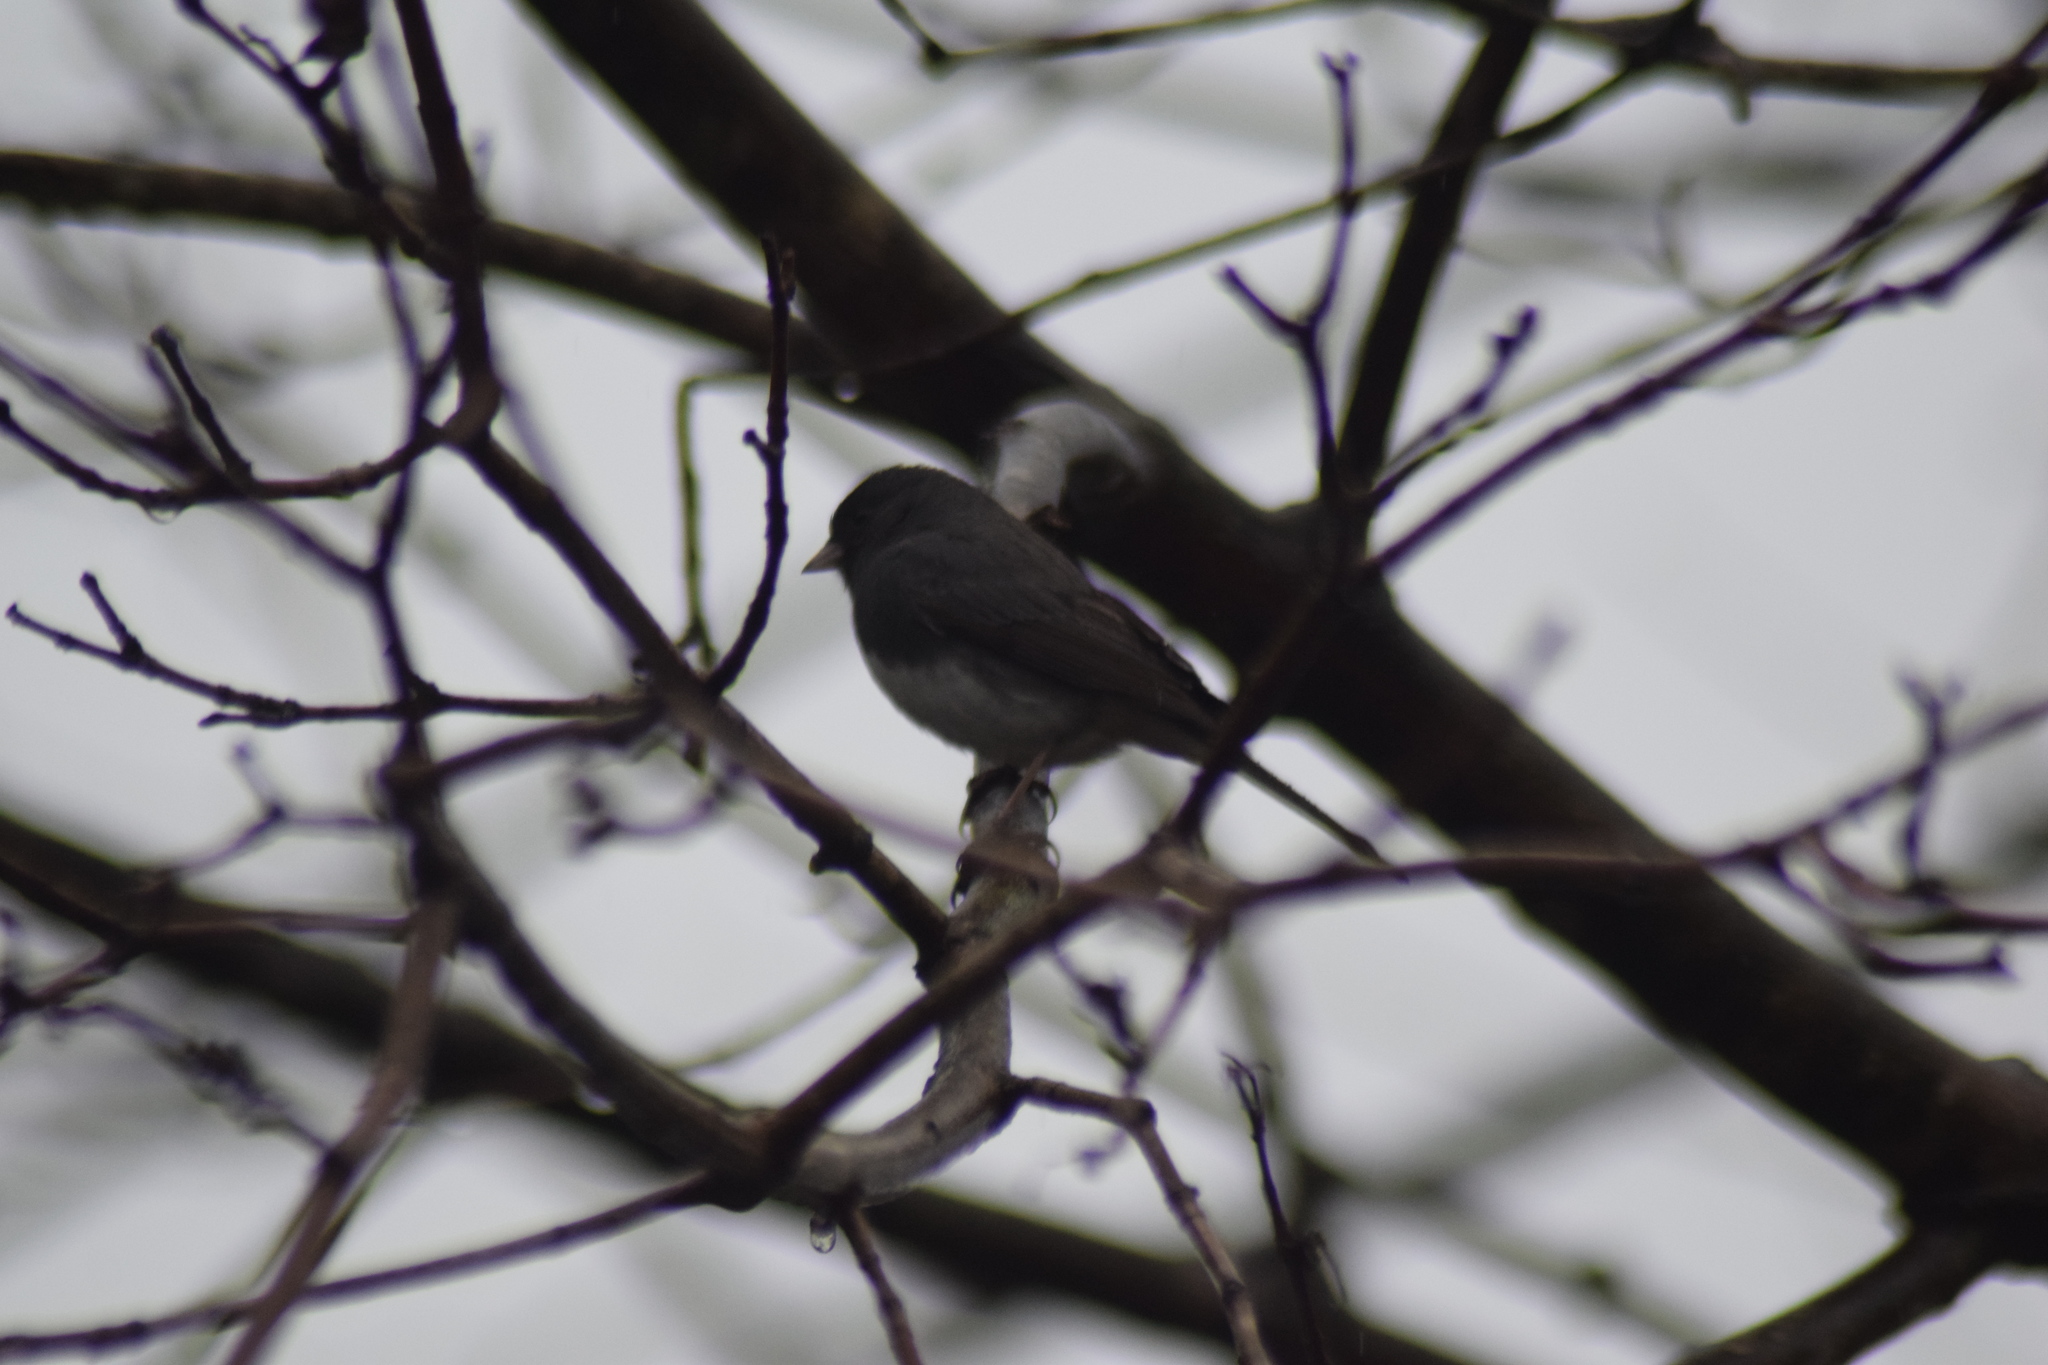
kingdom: Animalia
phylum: Chordata
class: Aves
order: Passeriformes
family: Passerellidae
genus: Junco
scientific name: Junco hyemalis
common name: Dark-eyed junco
